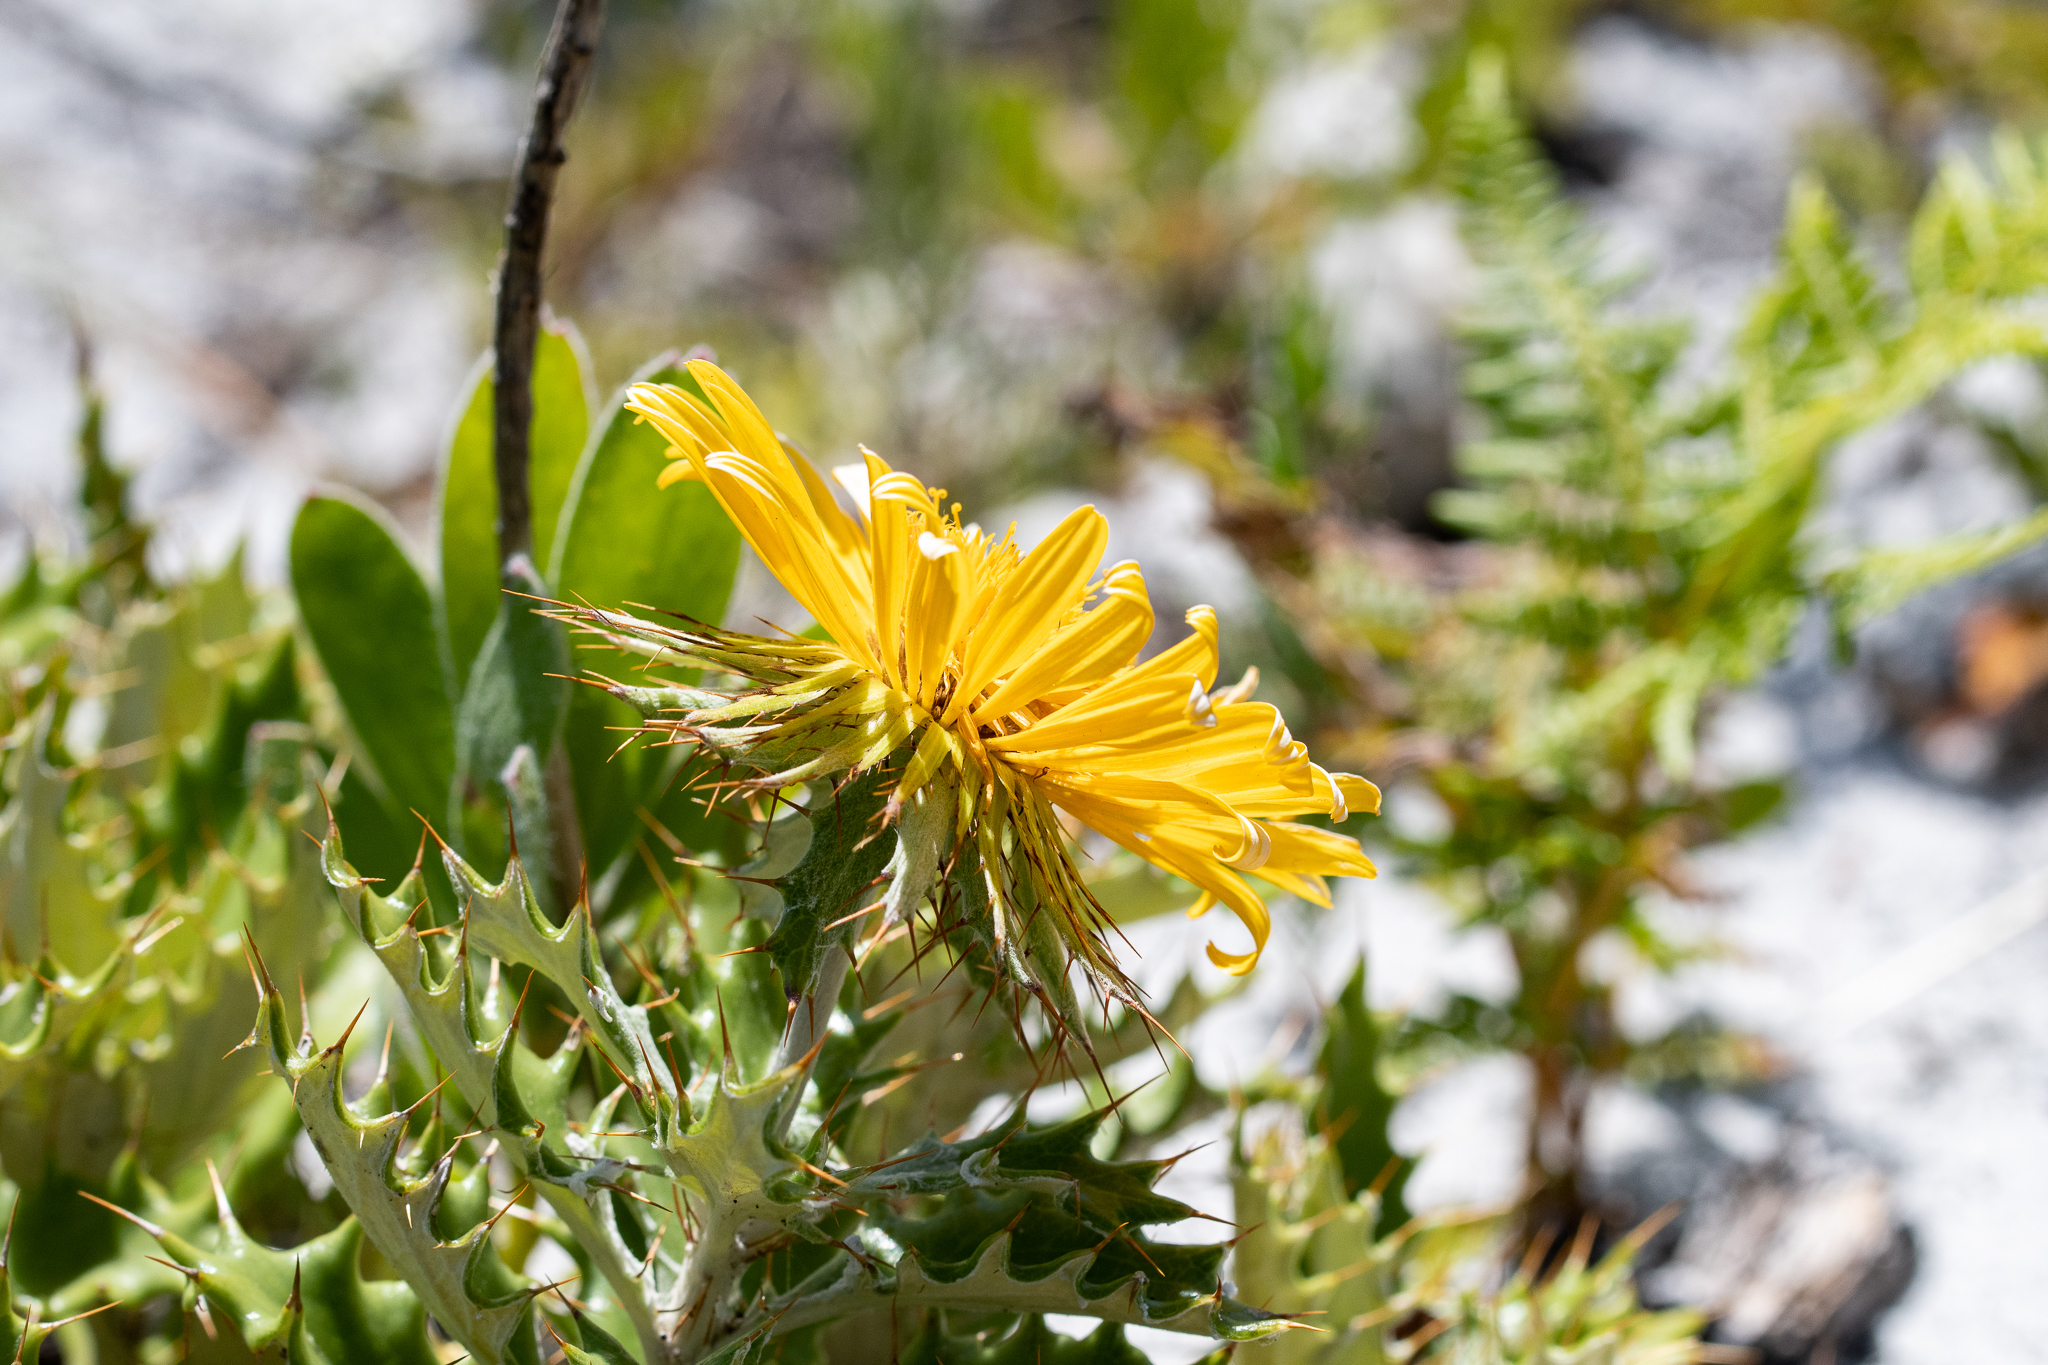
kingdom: Plantae
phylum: Tracheophyta
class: Magnoliopsida
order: Asterales
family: Asteraceae
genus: Berkheya
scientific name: Berkheya barbata
